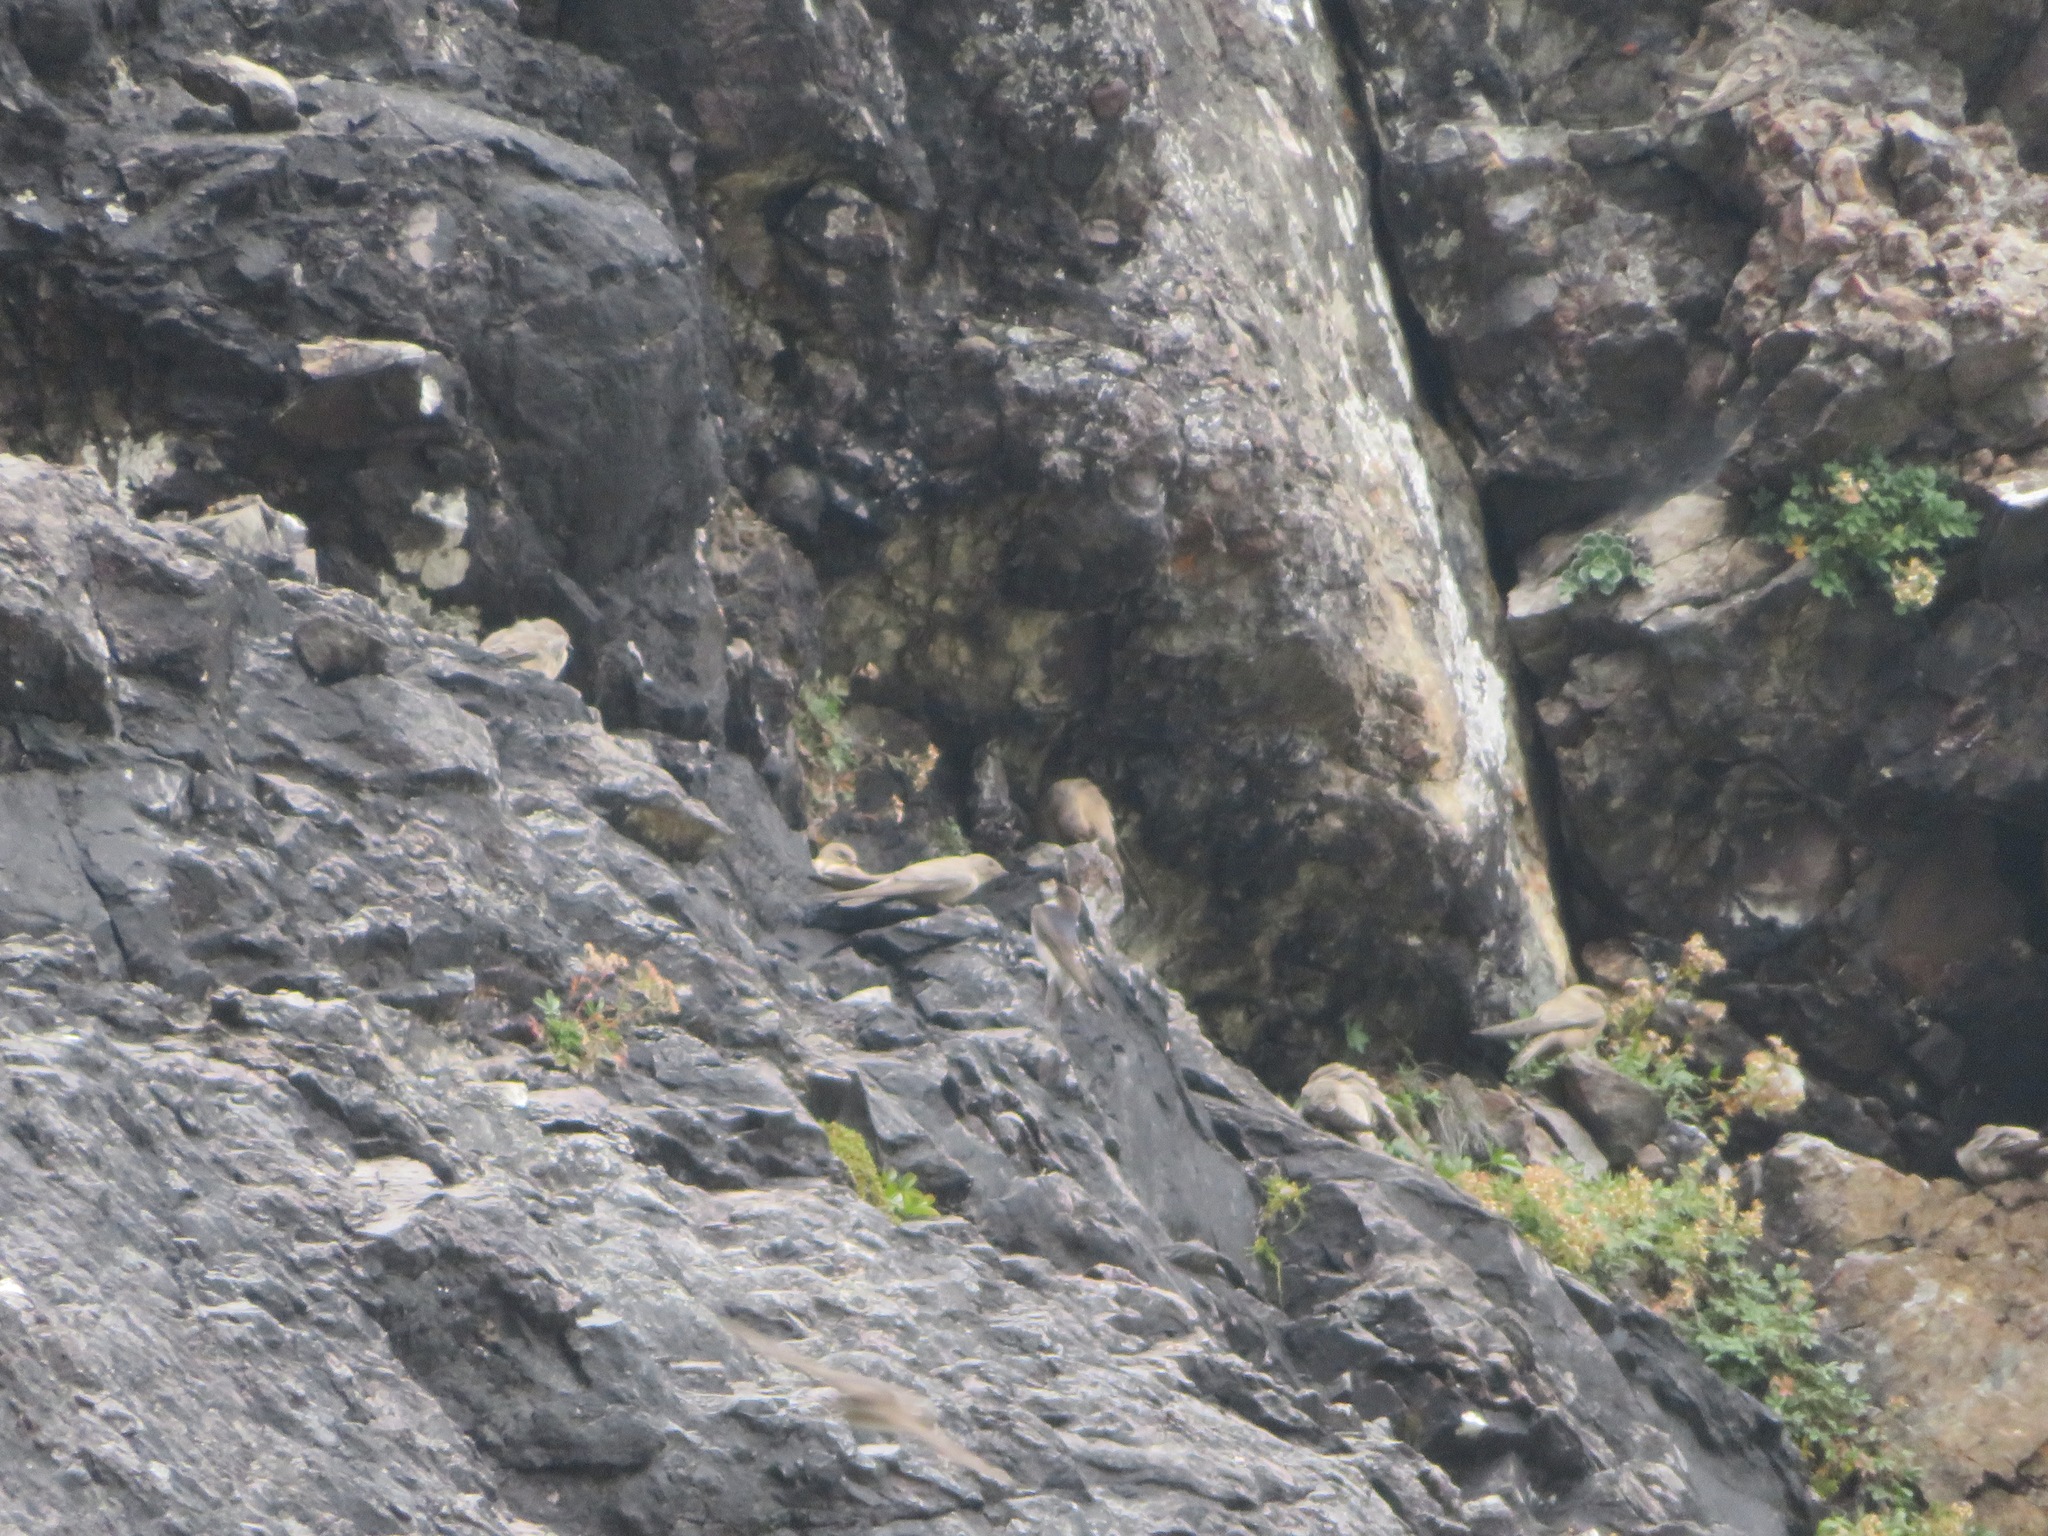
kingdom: Animalia
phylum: Chordata
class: Aves
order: Passeriformes
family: Hirundinidae
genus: Ptyonoprogne
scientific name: Ptyonoprogne rupestris
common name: Eurasian crag martin
